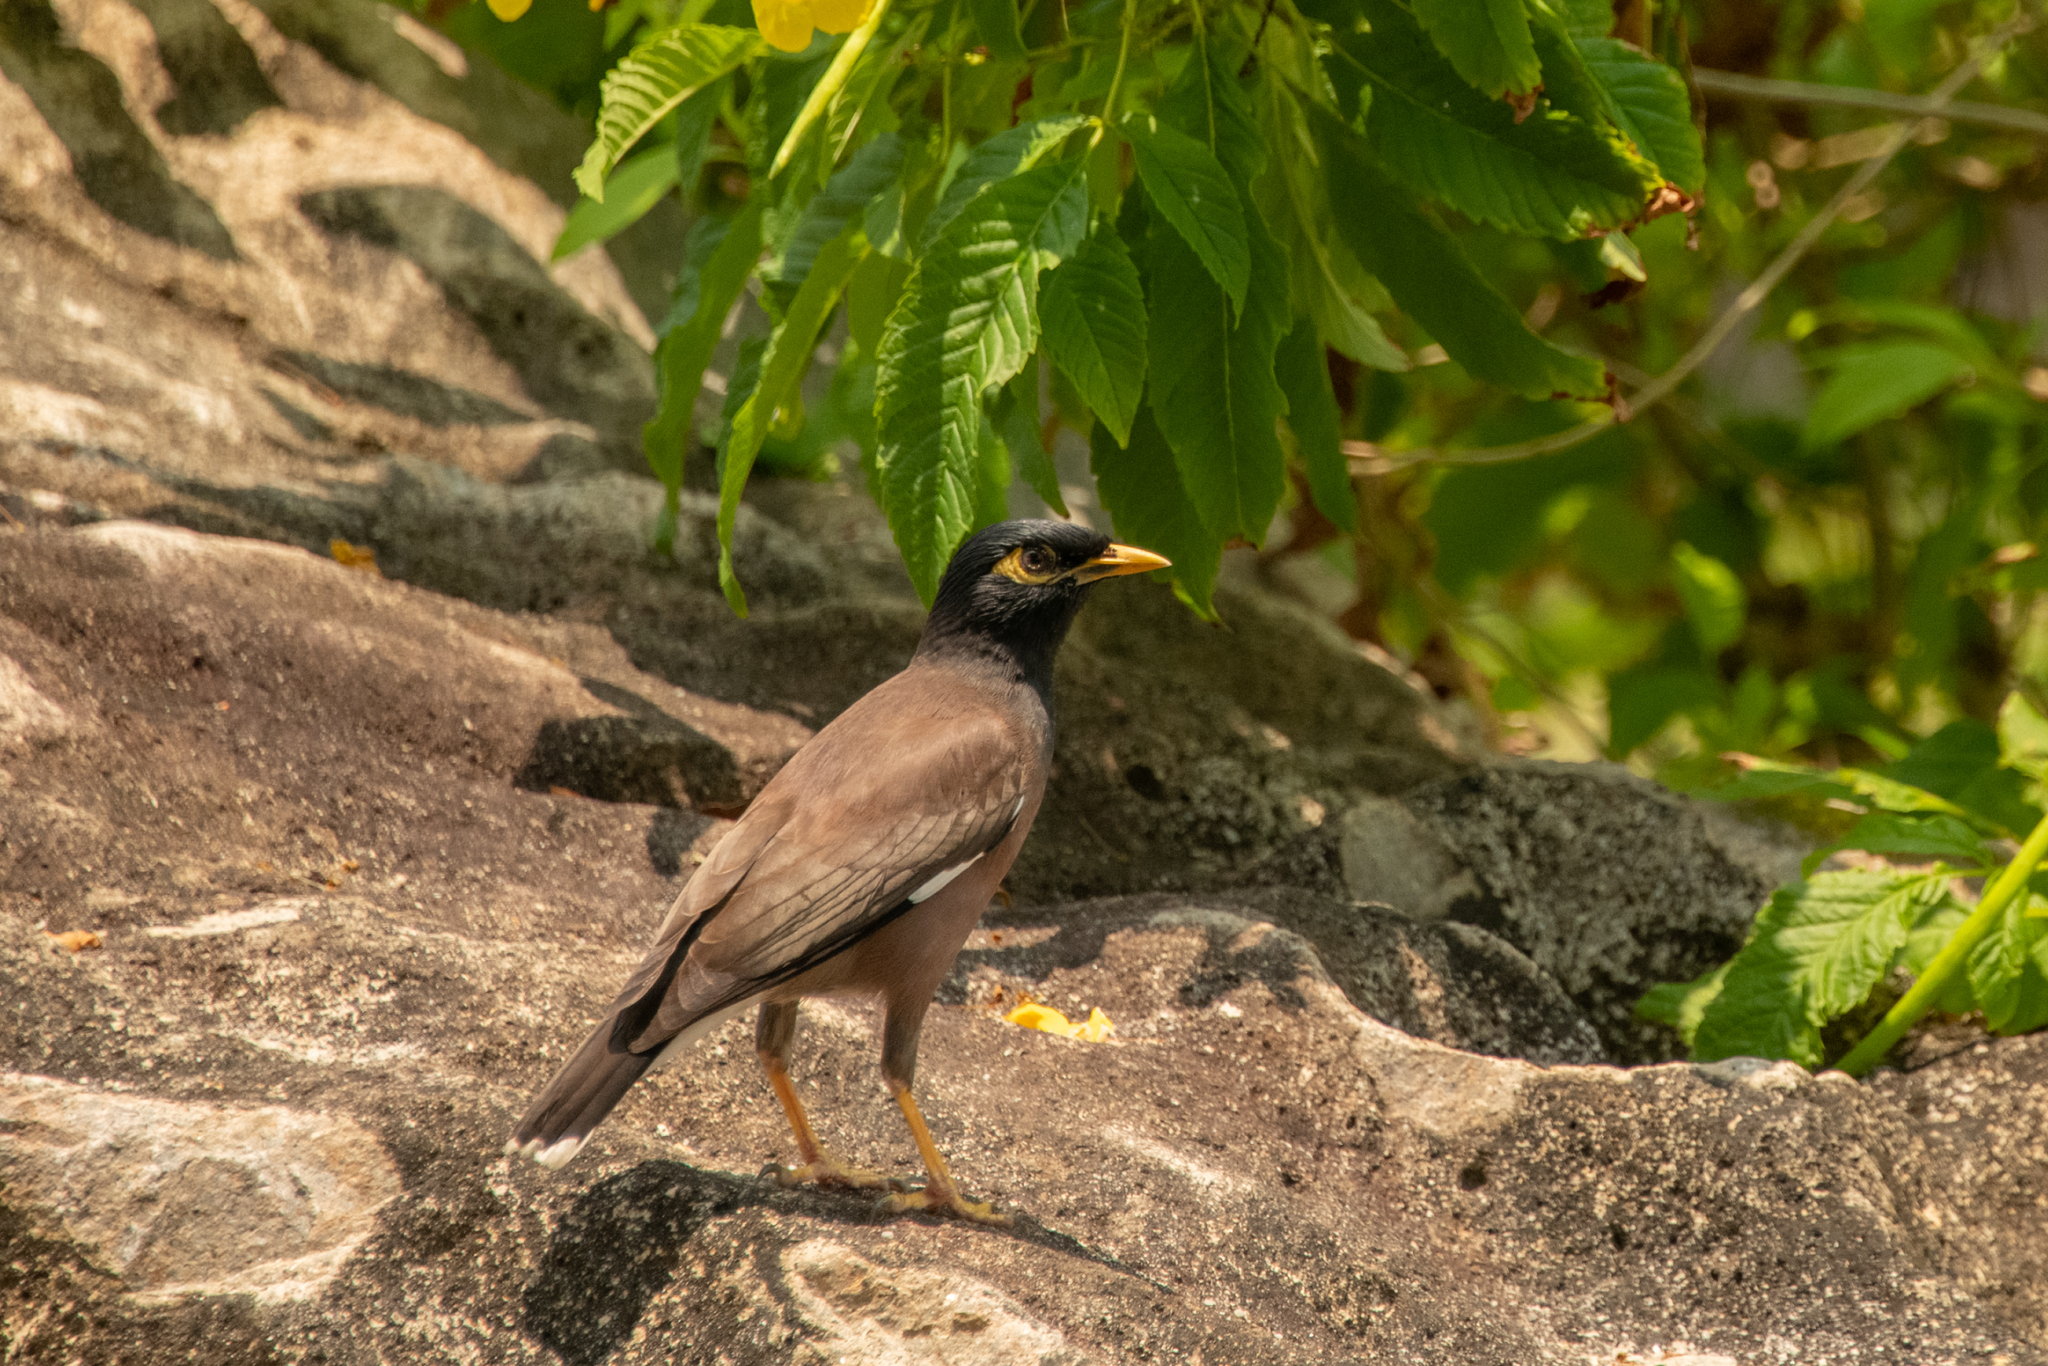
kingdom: Animalia
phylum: Chordata
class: Aves
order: Passeriformes
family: Sturnidae
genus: Acridotheres
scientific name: Acridotheres tristis
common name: Common myna
